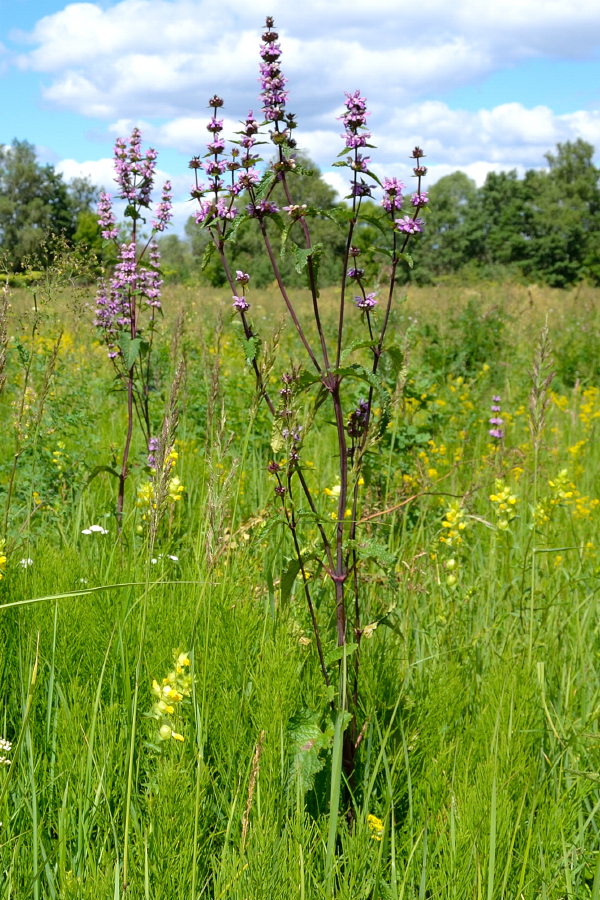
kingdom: Plantae
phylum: Tracheophyta
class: Magnoliopsida
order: Lamiales
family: Lamiaceae
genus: Phlomoides
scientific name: Phlomoides tuberosa
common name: Tuberous jerusalem sage
